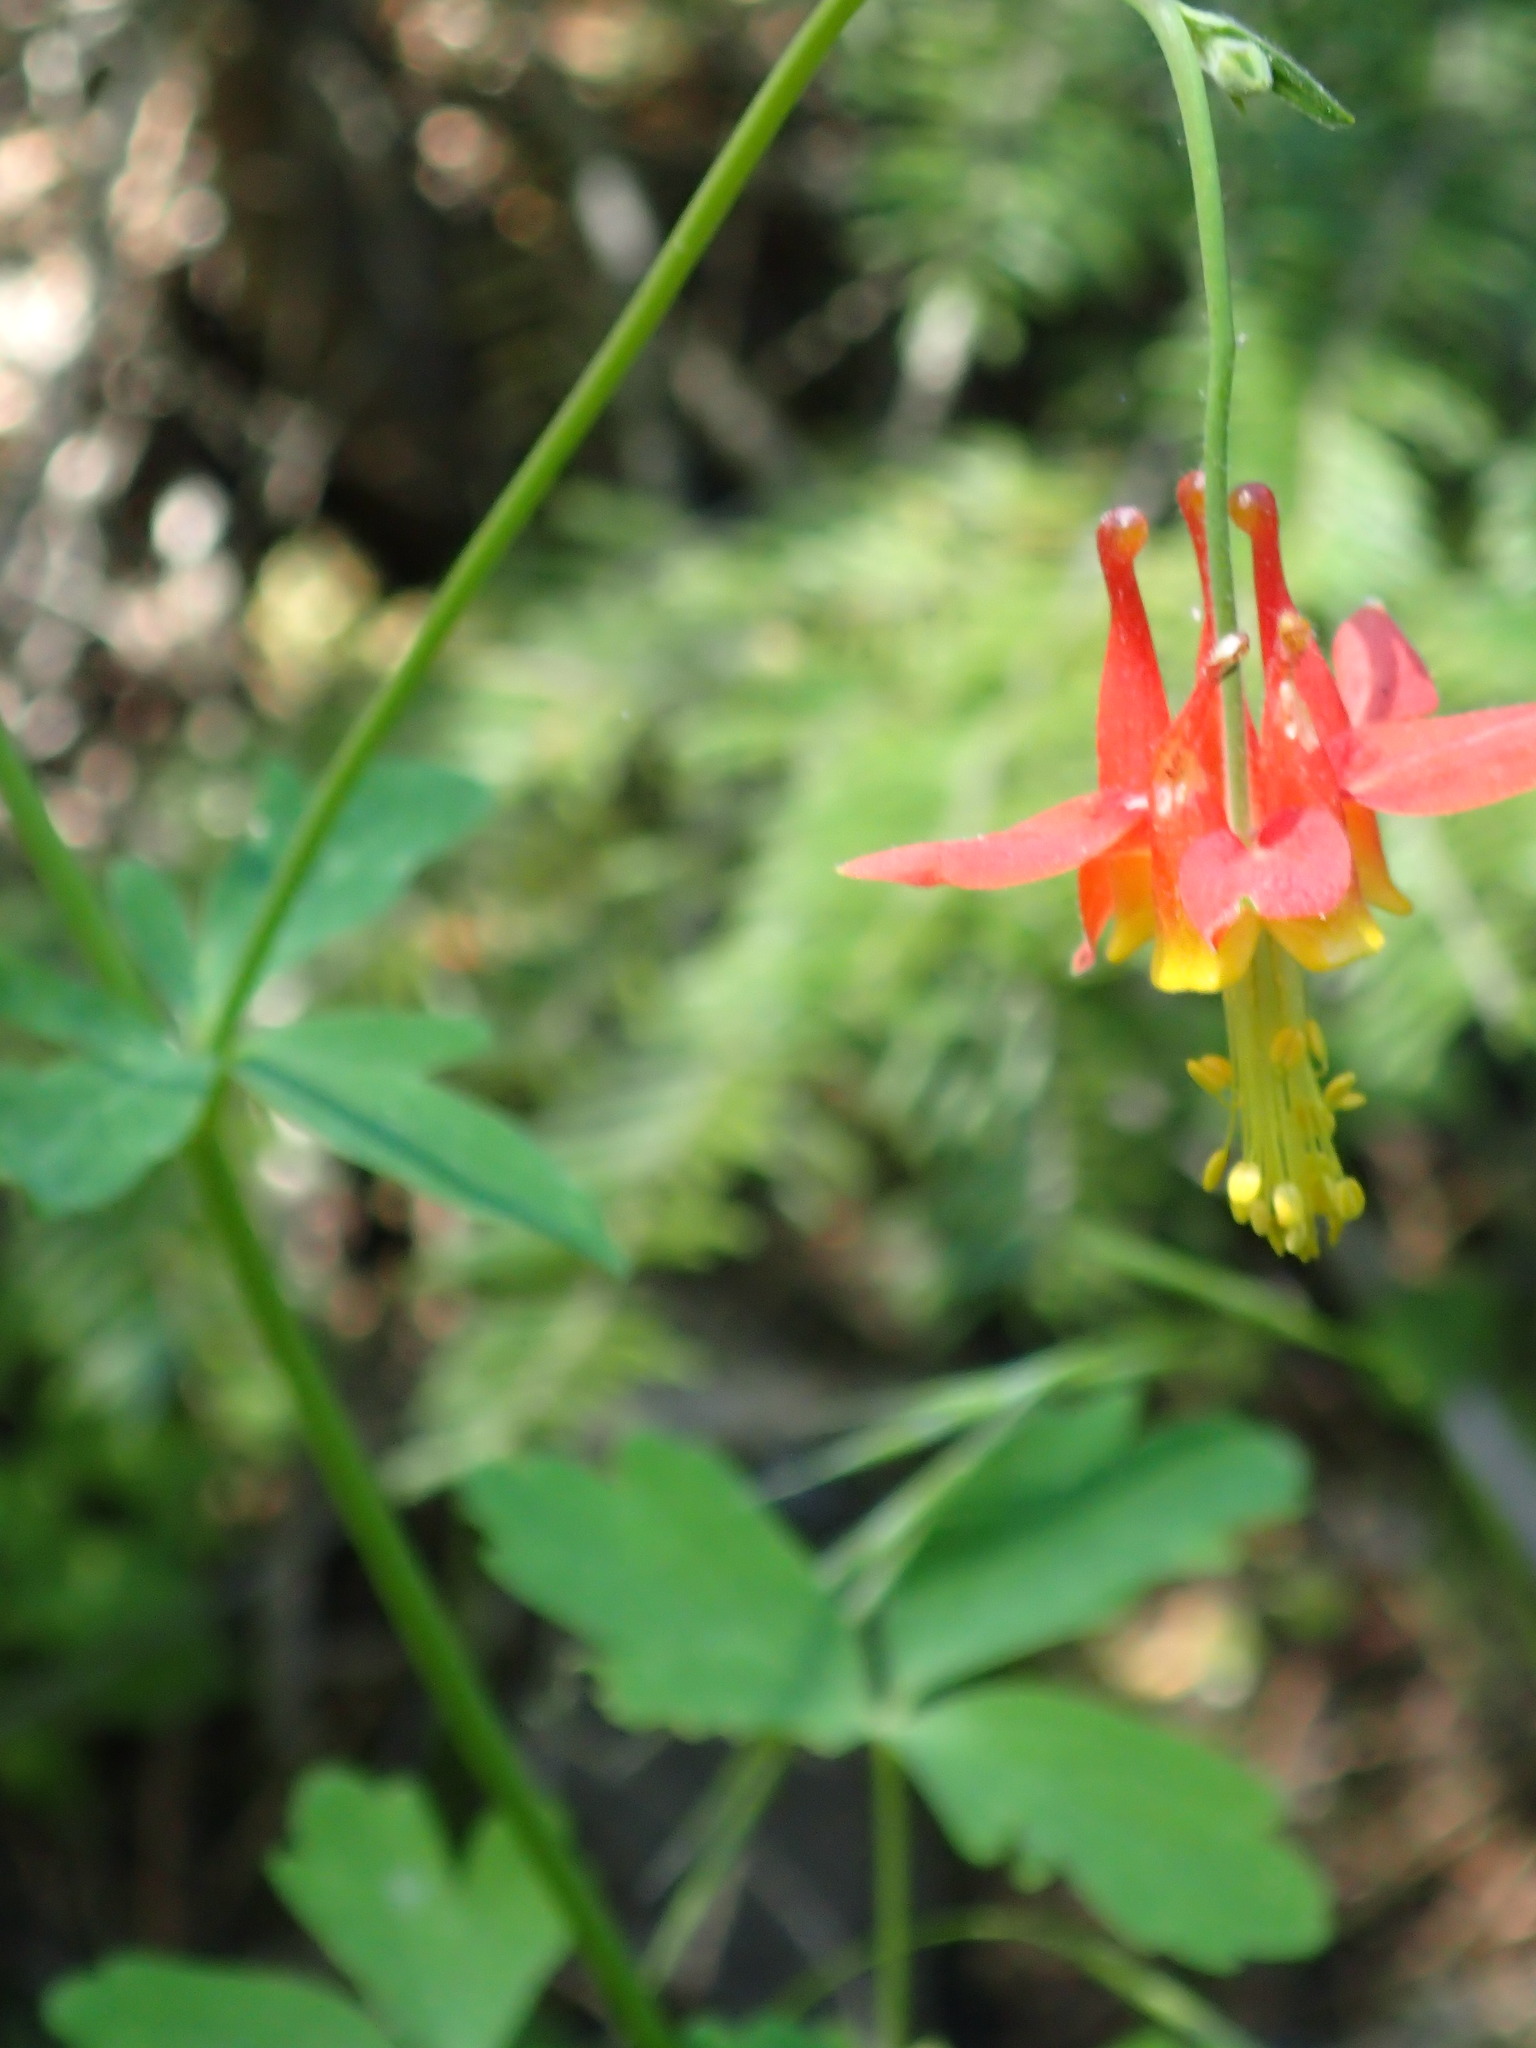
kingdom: Plantae
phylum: Tracheophyta
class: Magnoliopsida
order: Ranunculales
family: Ranunculaceae
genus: Aquilegia
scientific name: Aquilegia formosa
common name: Sitka columbine
